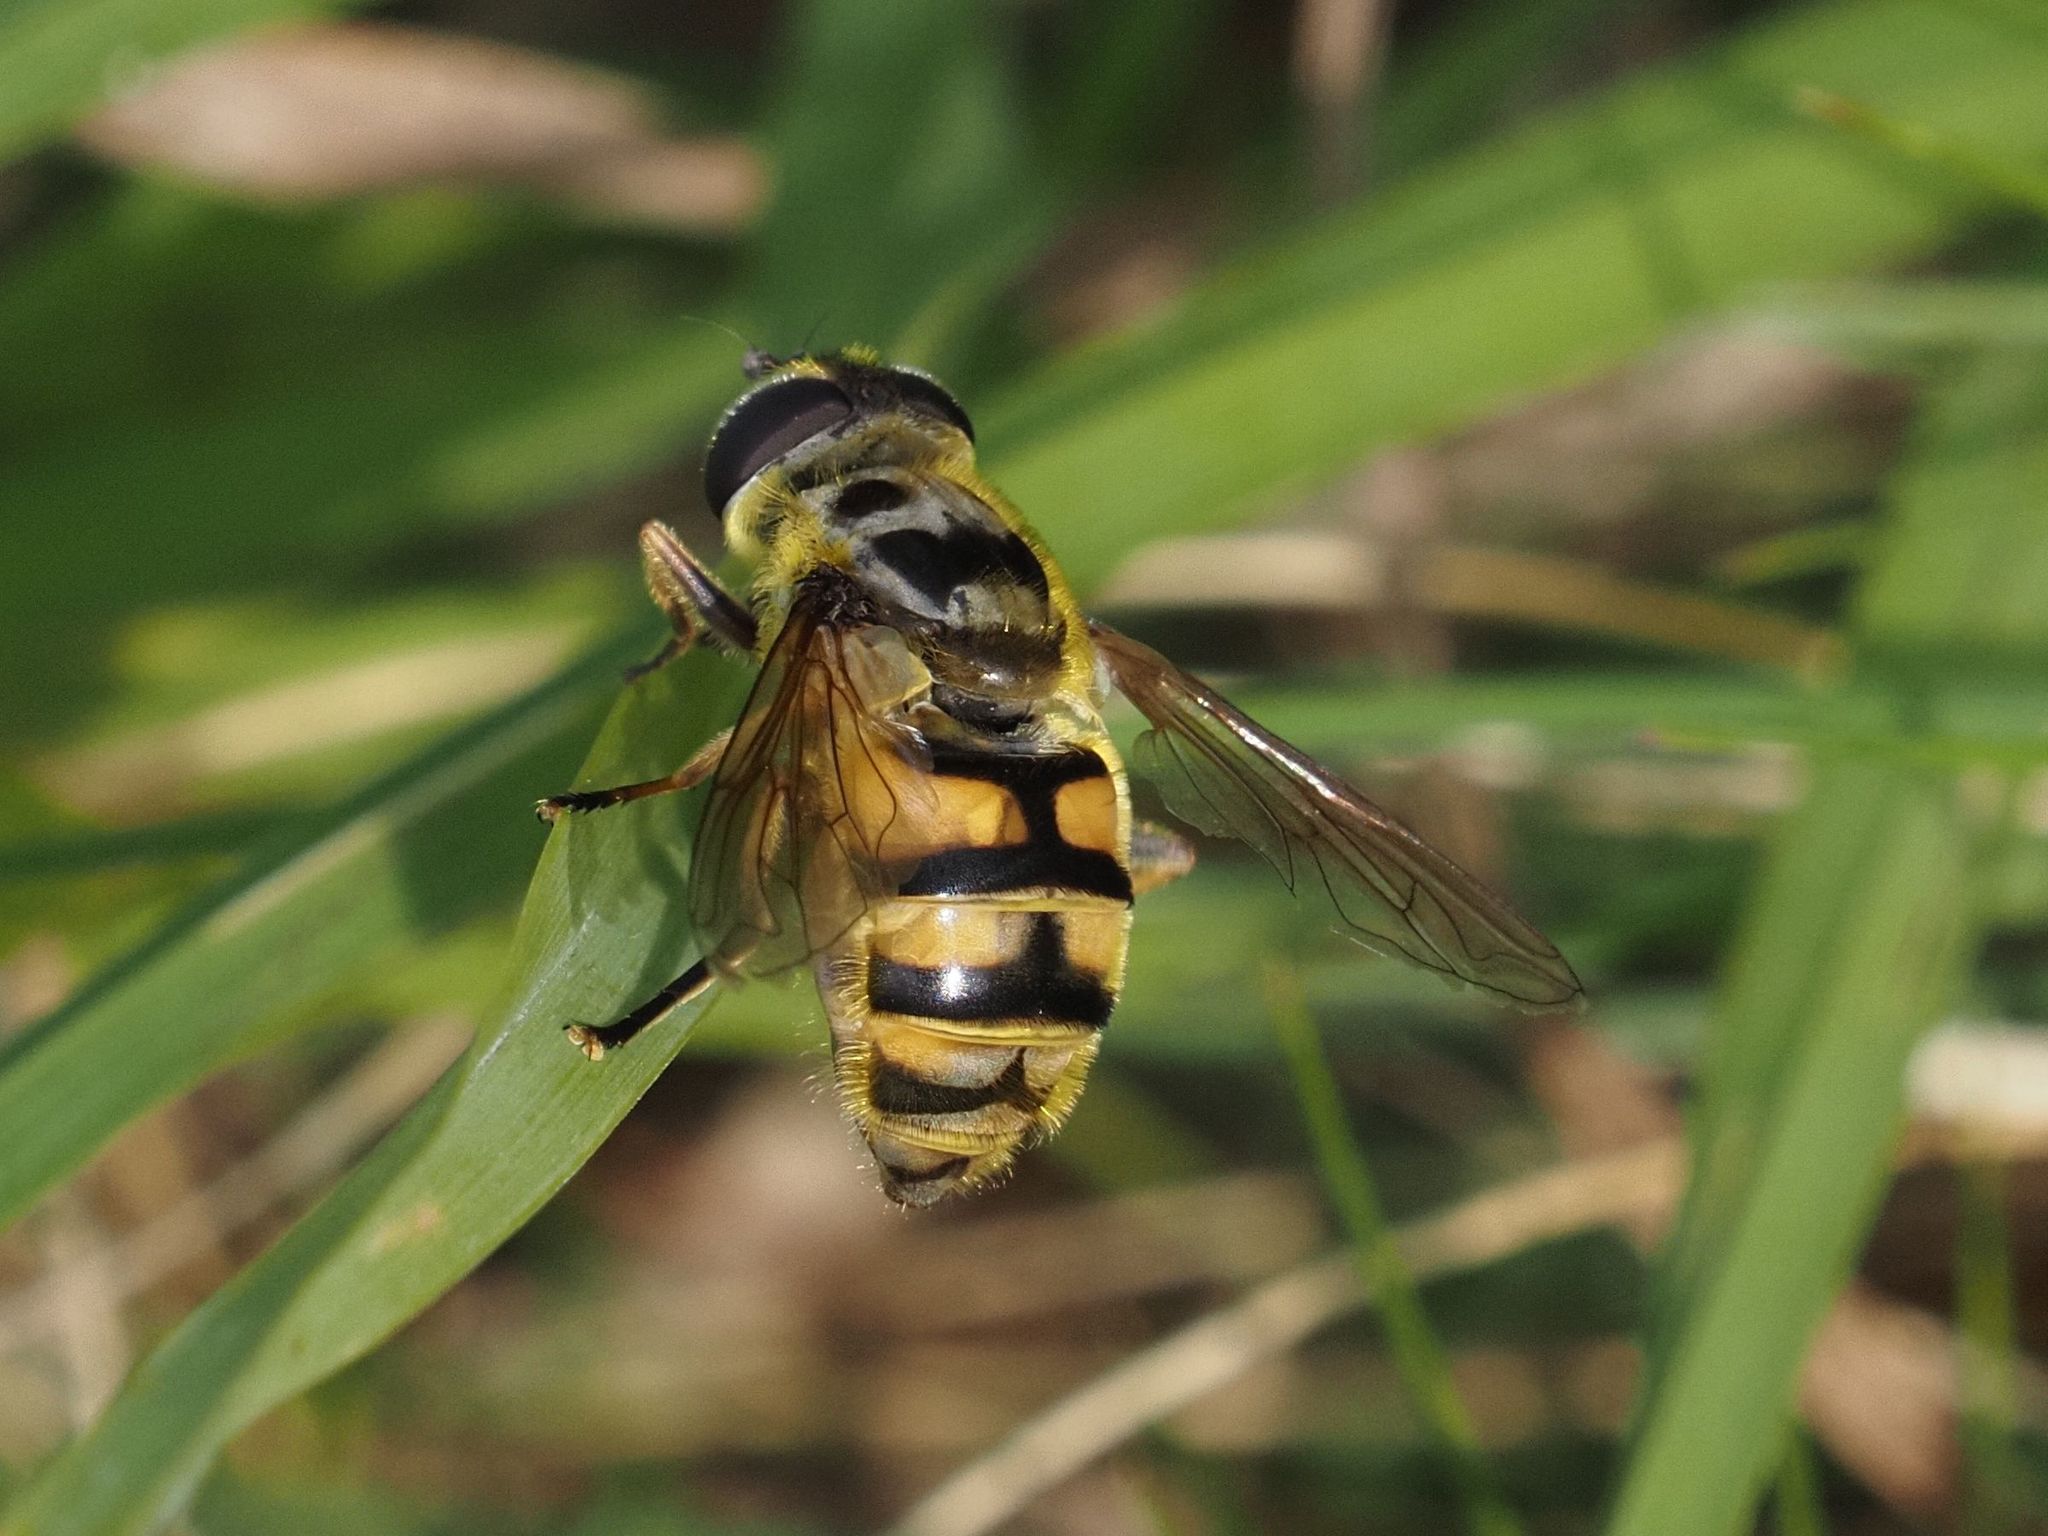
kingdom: Animalia
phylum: Arthropoda
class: Insecta
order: Diptera
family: Syrphidae
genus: Myathropa
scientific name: Myathropa florea
